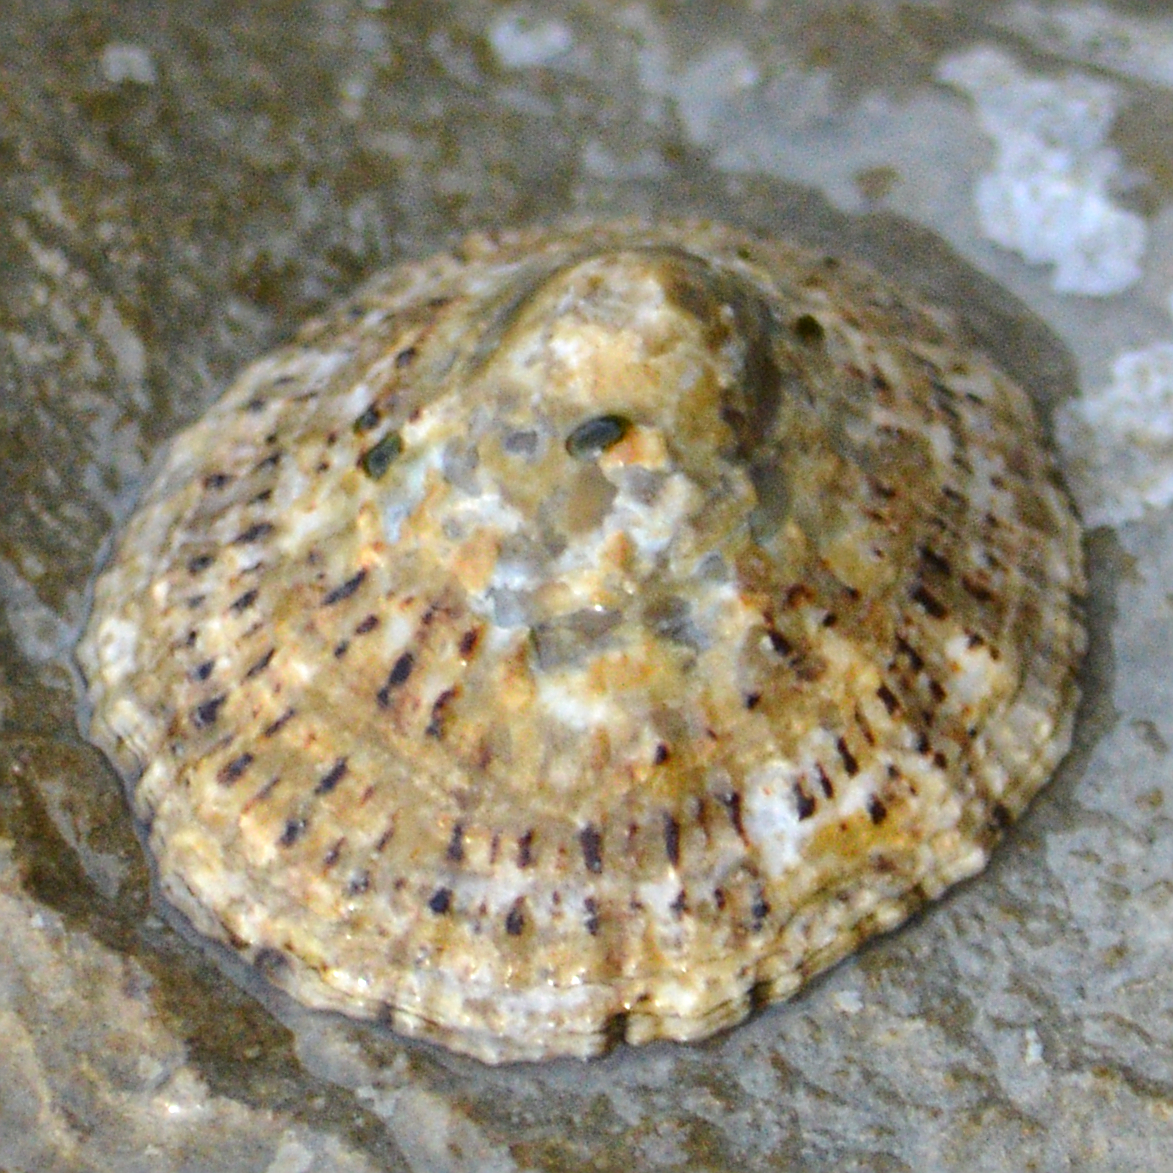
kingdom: Animalia
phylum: Mollusca
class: Gastropoda
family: Patellidae
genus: Patella
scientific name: Patella rustica
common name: Lusitanian limpet
